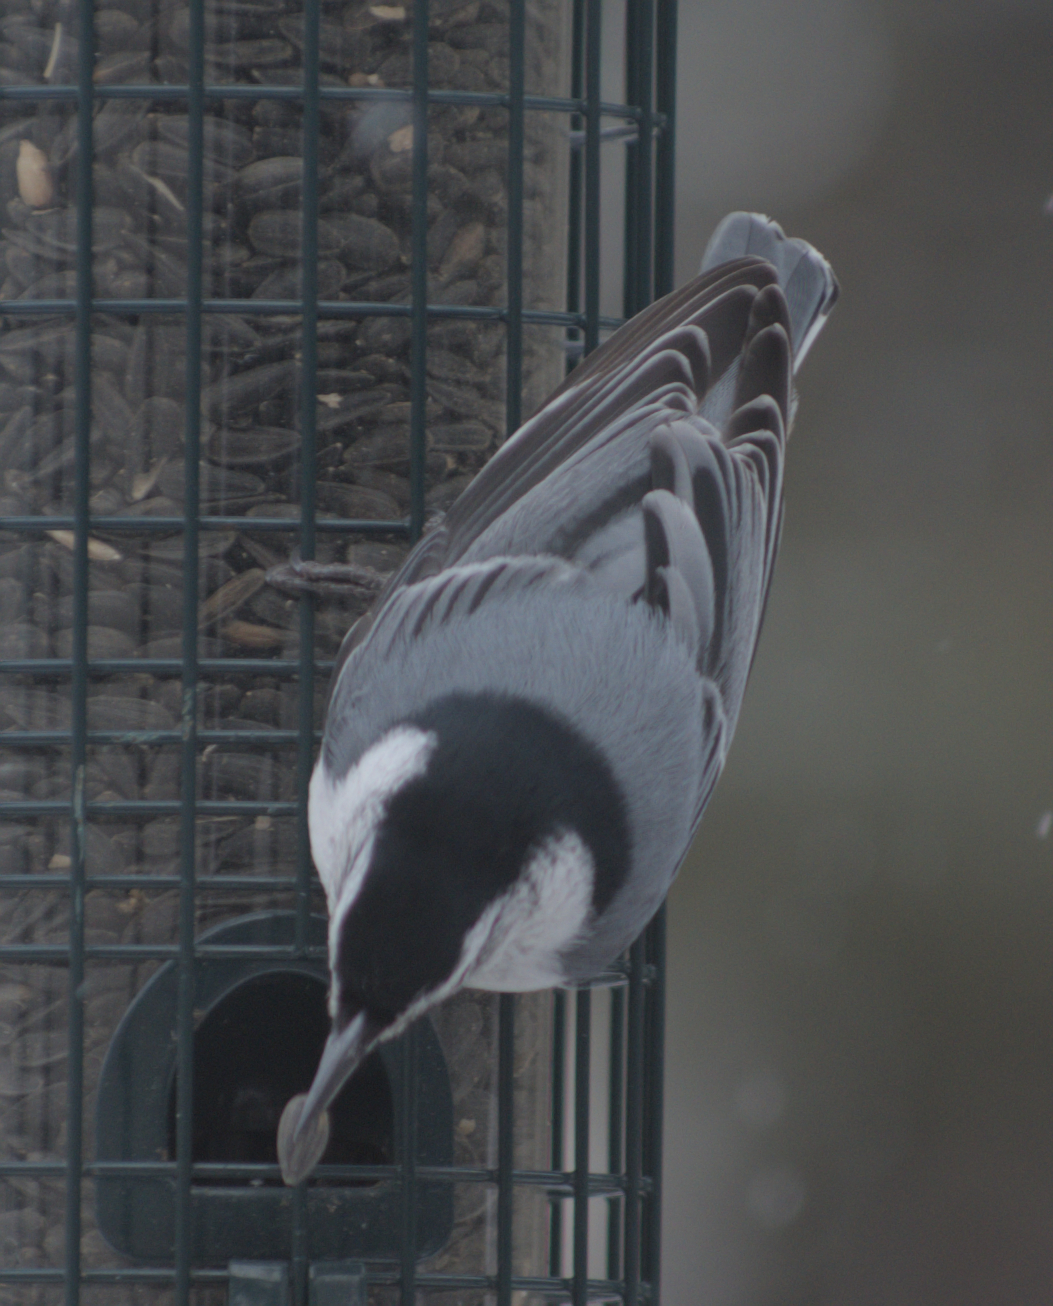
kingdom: Animalia
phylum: Chordata
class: Aves
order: Passeriformes
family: Sittidae
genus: Sitta
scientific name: Sitta carolinensis
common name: White-breasted nuthatch
